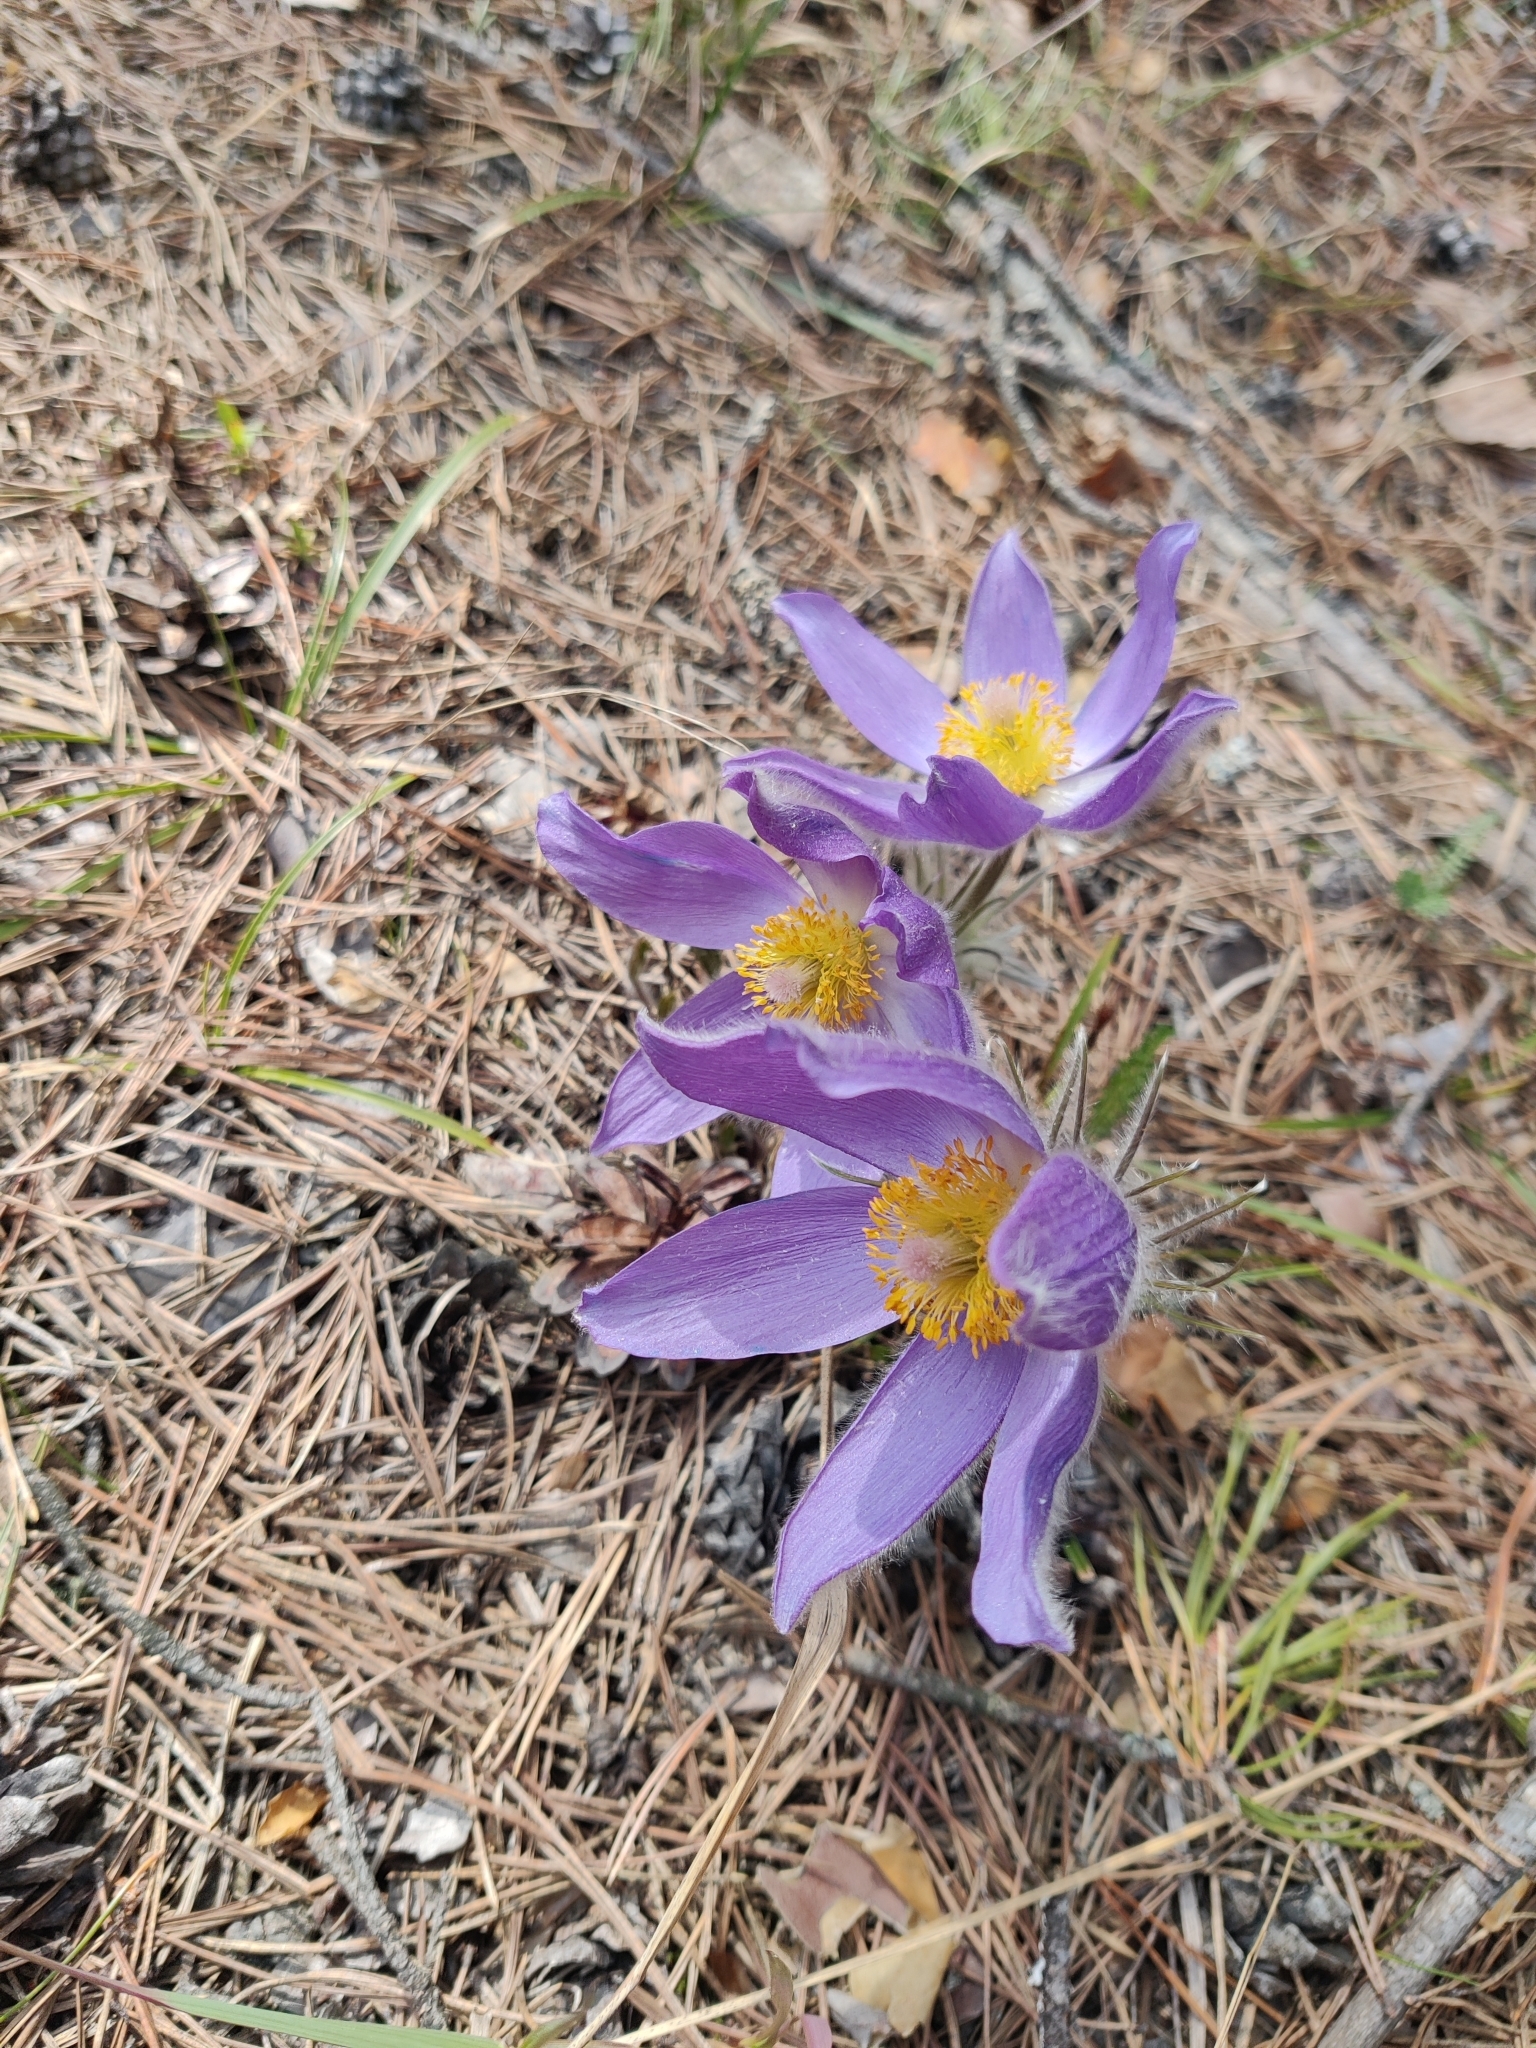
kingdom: Plantae
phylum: Tracheophyta
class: Magnoliopsida
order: Ranunculales
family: Ranunculaceae
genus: Pulsatilla
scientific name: Pulsatilla patens
